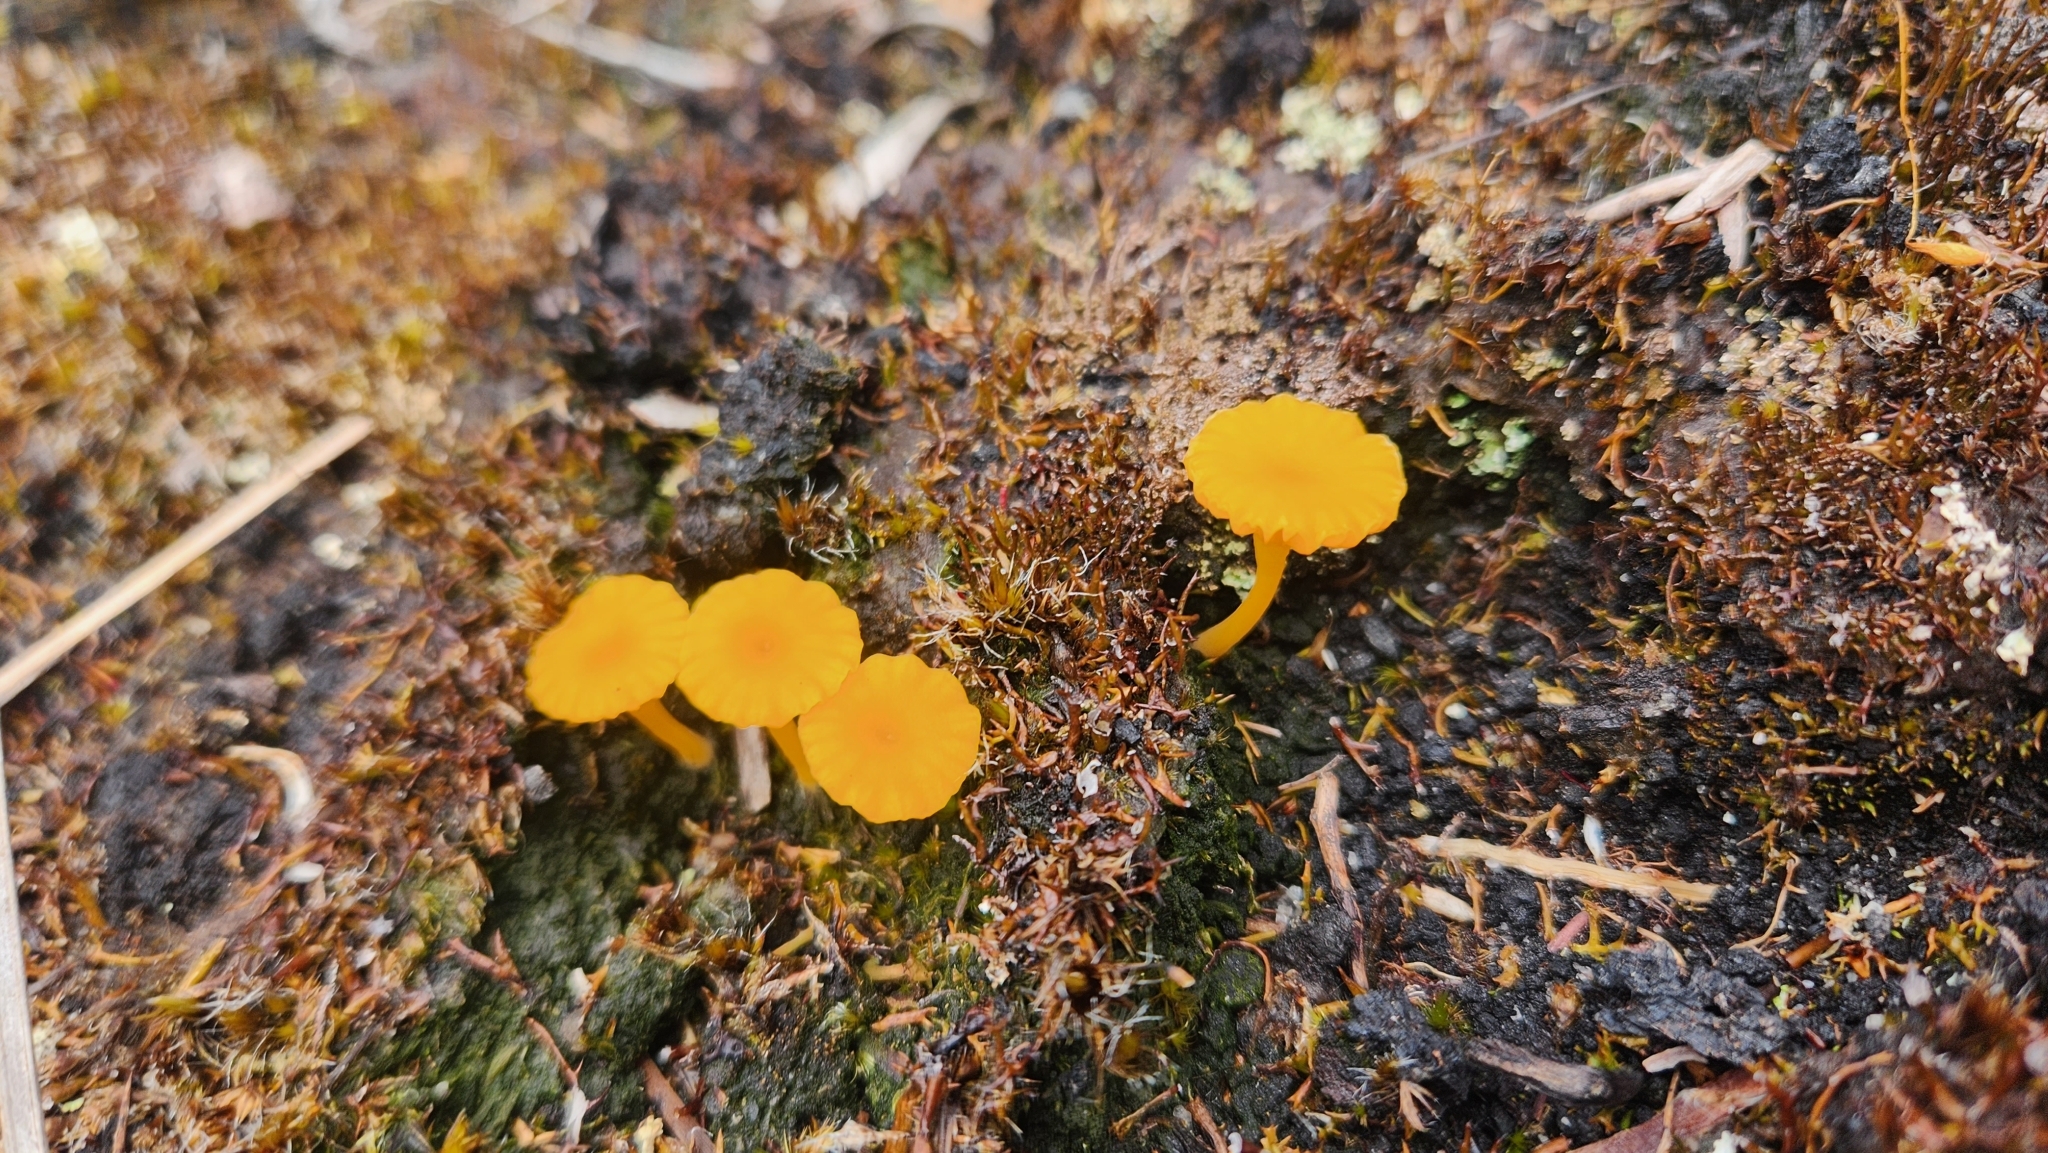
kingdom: Fungi
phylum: Basidiomycota
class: Agaricomycetes
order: Agaricales
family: Hygrophoraceae
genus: Lichenomphalia
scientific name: Lichenomphalia chromacea
